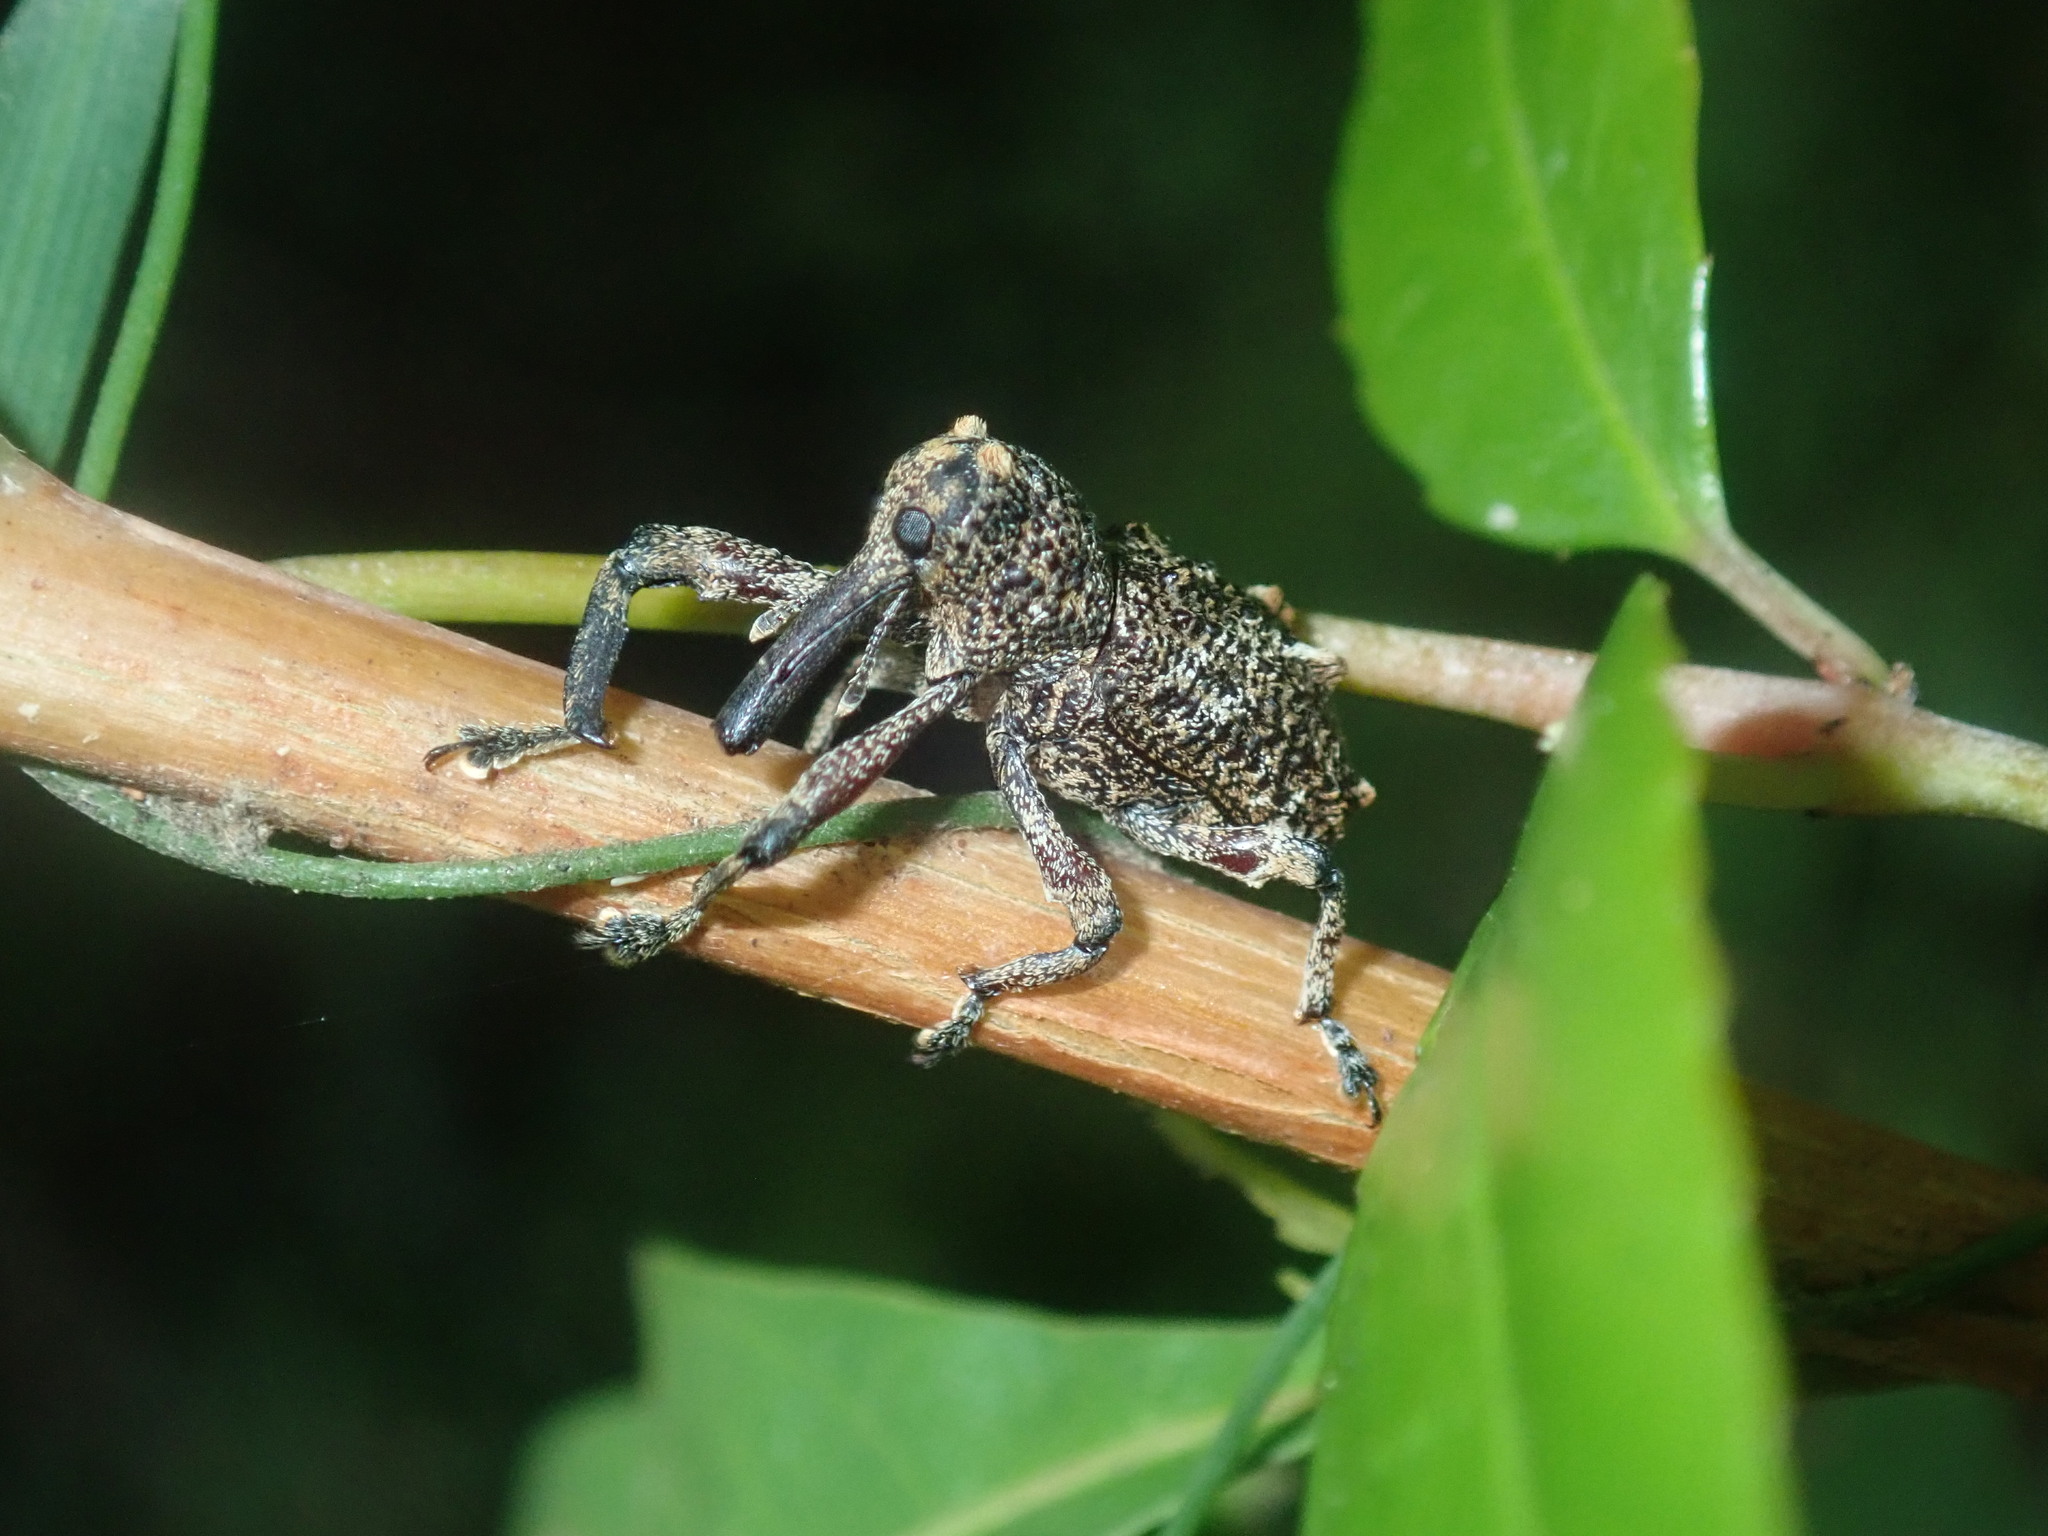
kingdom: Animalia
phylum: Arthropoda
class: Insecta
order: Coleoptera
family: Curculionidae
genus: Orthorhinus
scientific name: Orthorhinus cylindrirostris
